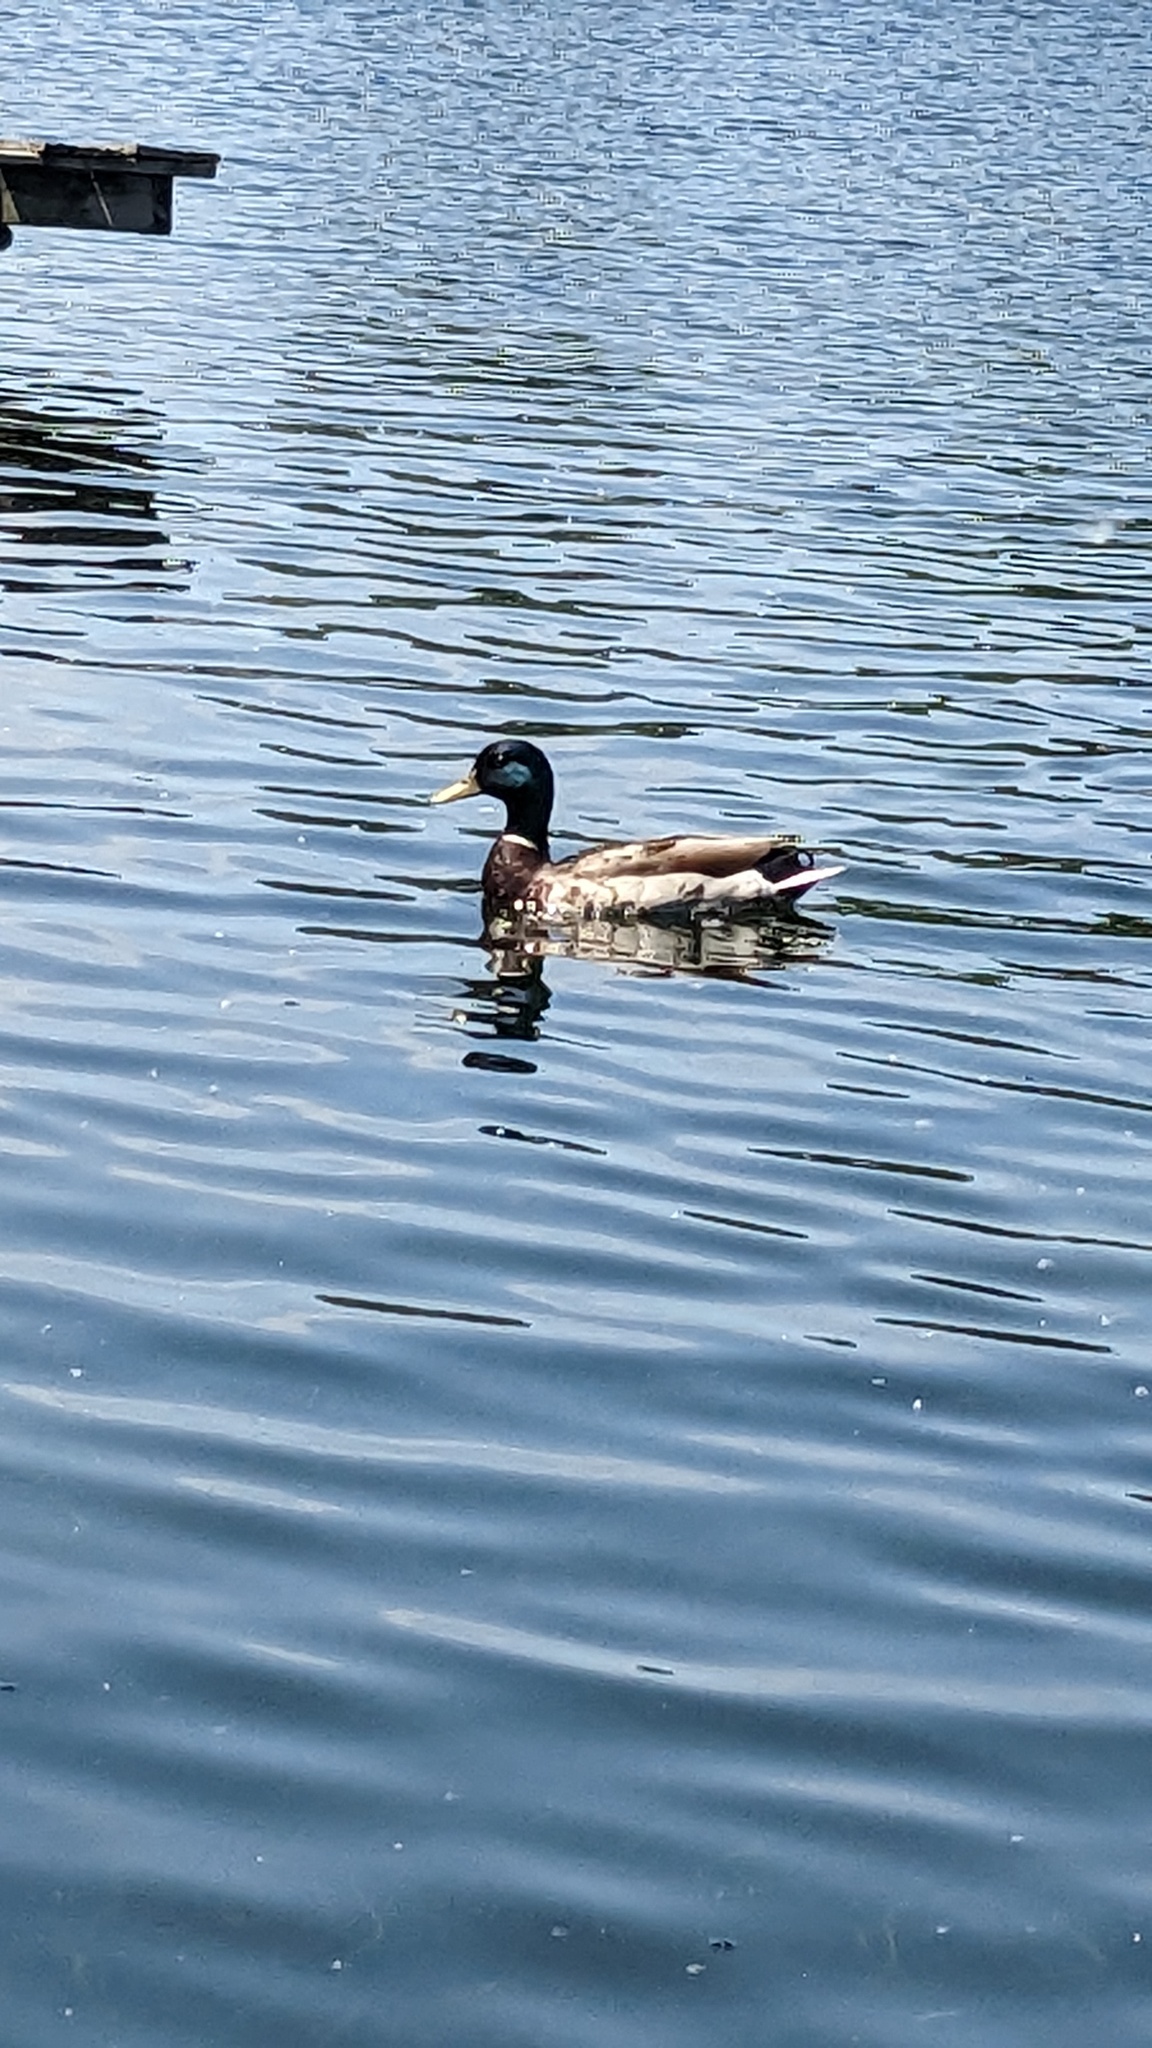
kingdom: Animalia
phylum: Chordata
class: Aves
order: Anseriformes
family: Anatidae
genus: Anas
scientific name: Anas platyrhynchos
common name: Mallard
